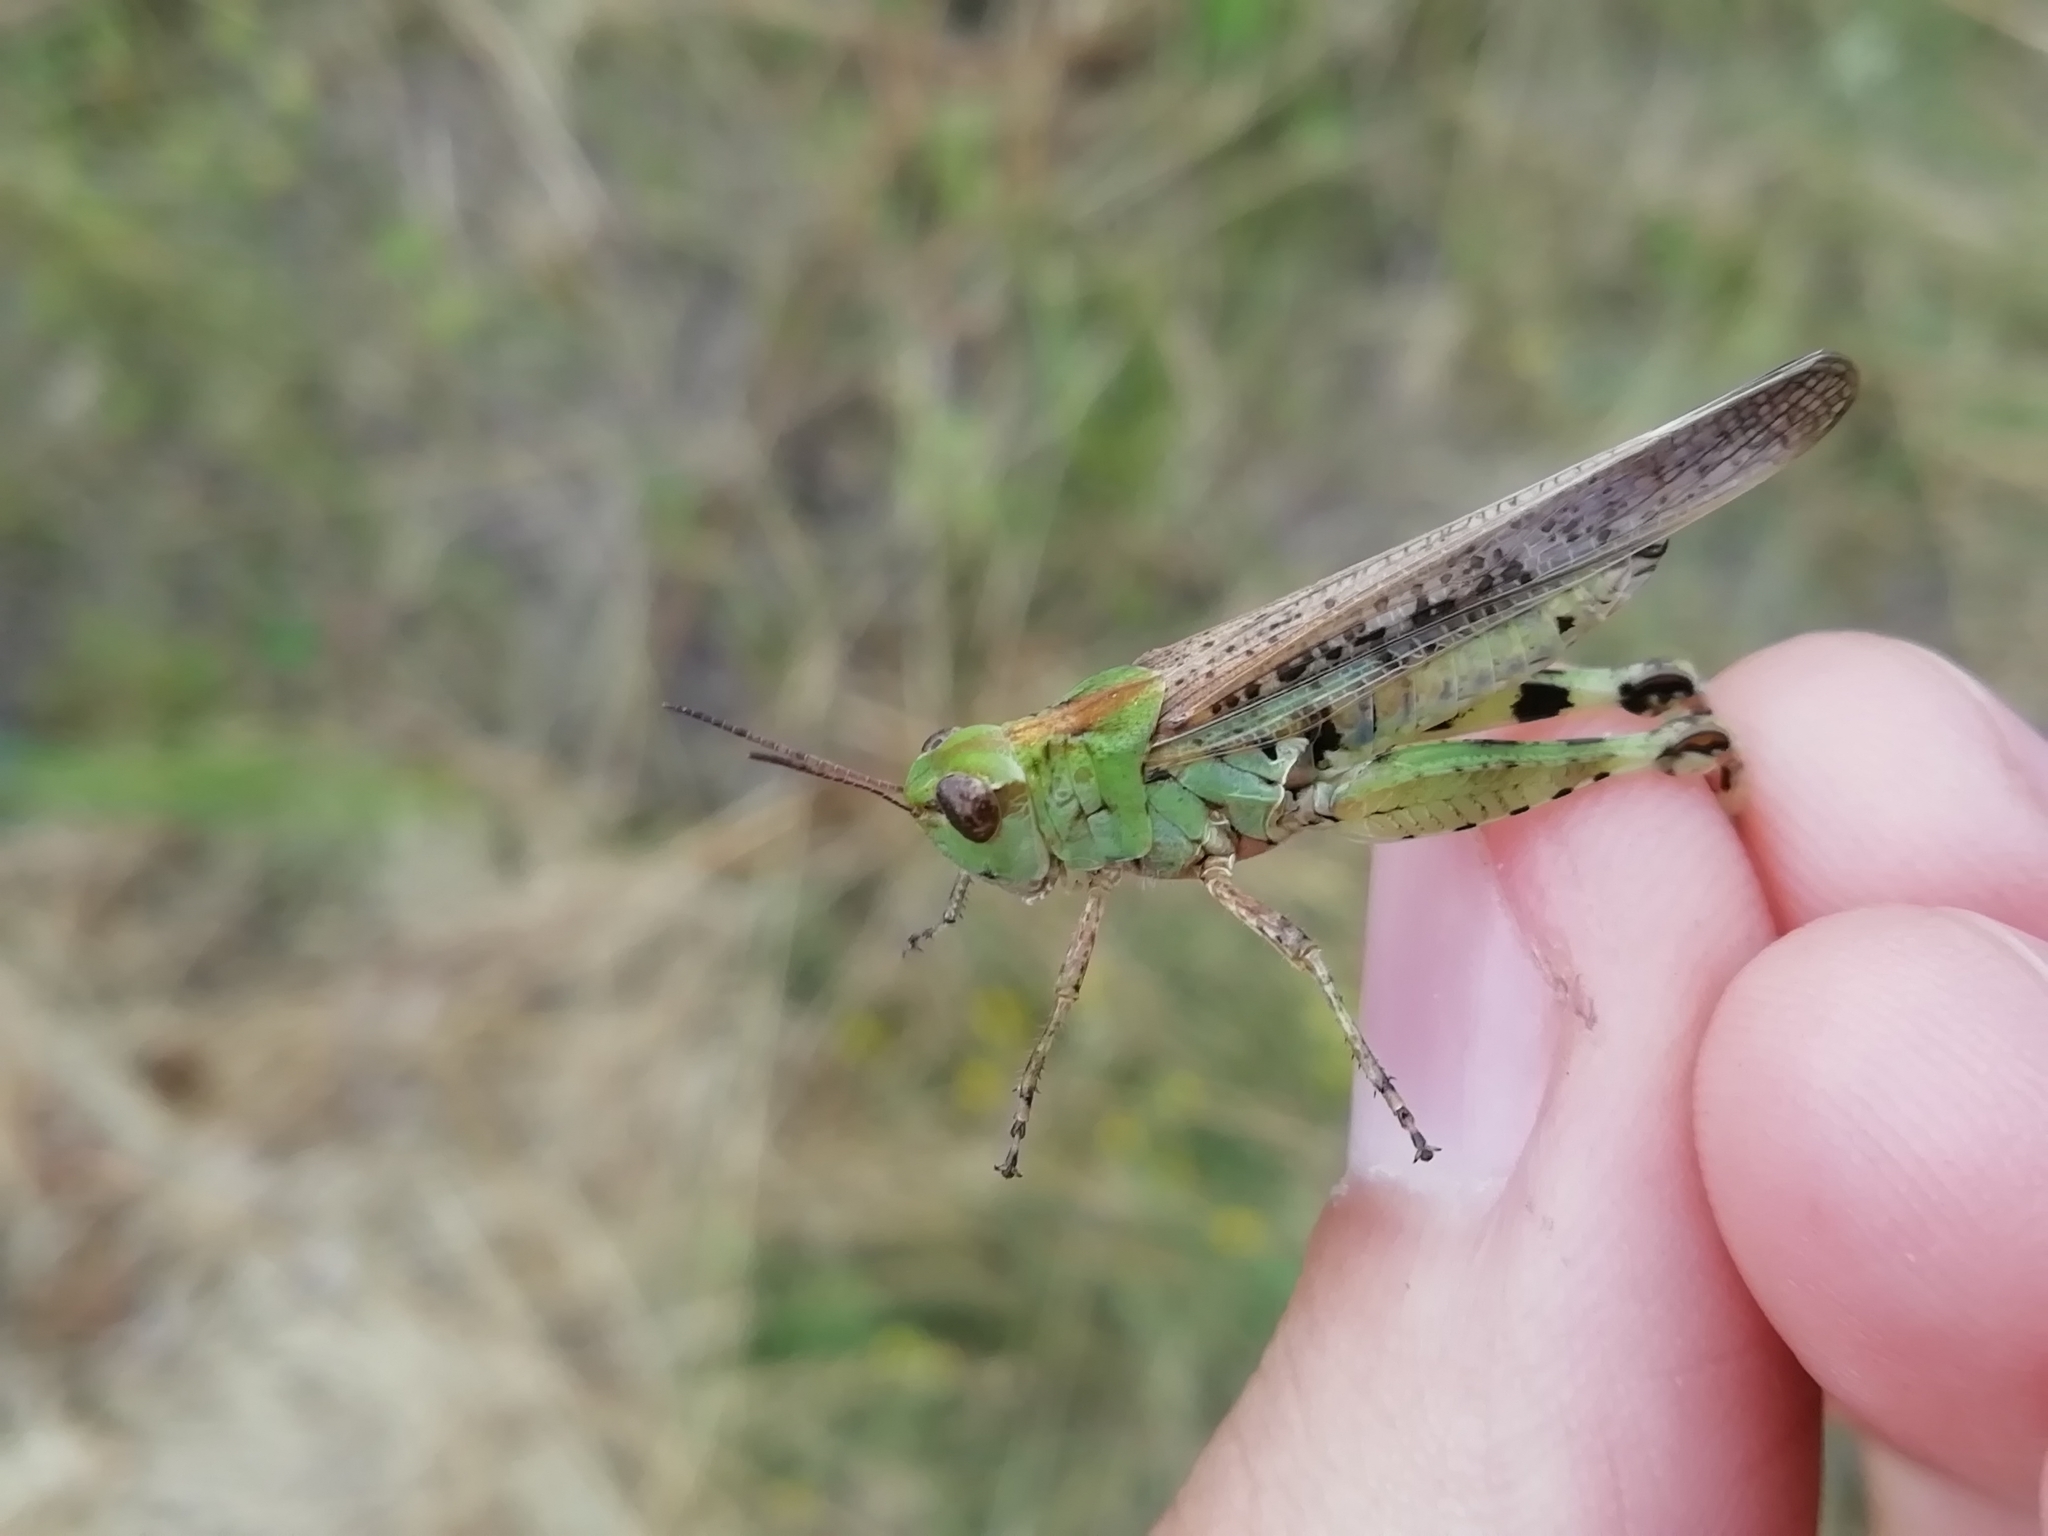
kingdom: Animalia
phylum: Arthropoda
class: Insecta
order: Orthoptera
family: Acrididae
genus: Aiolopus
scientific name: Aiolopus thalassinus
